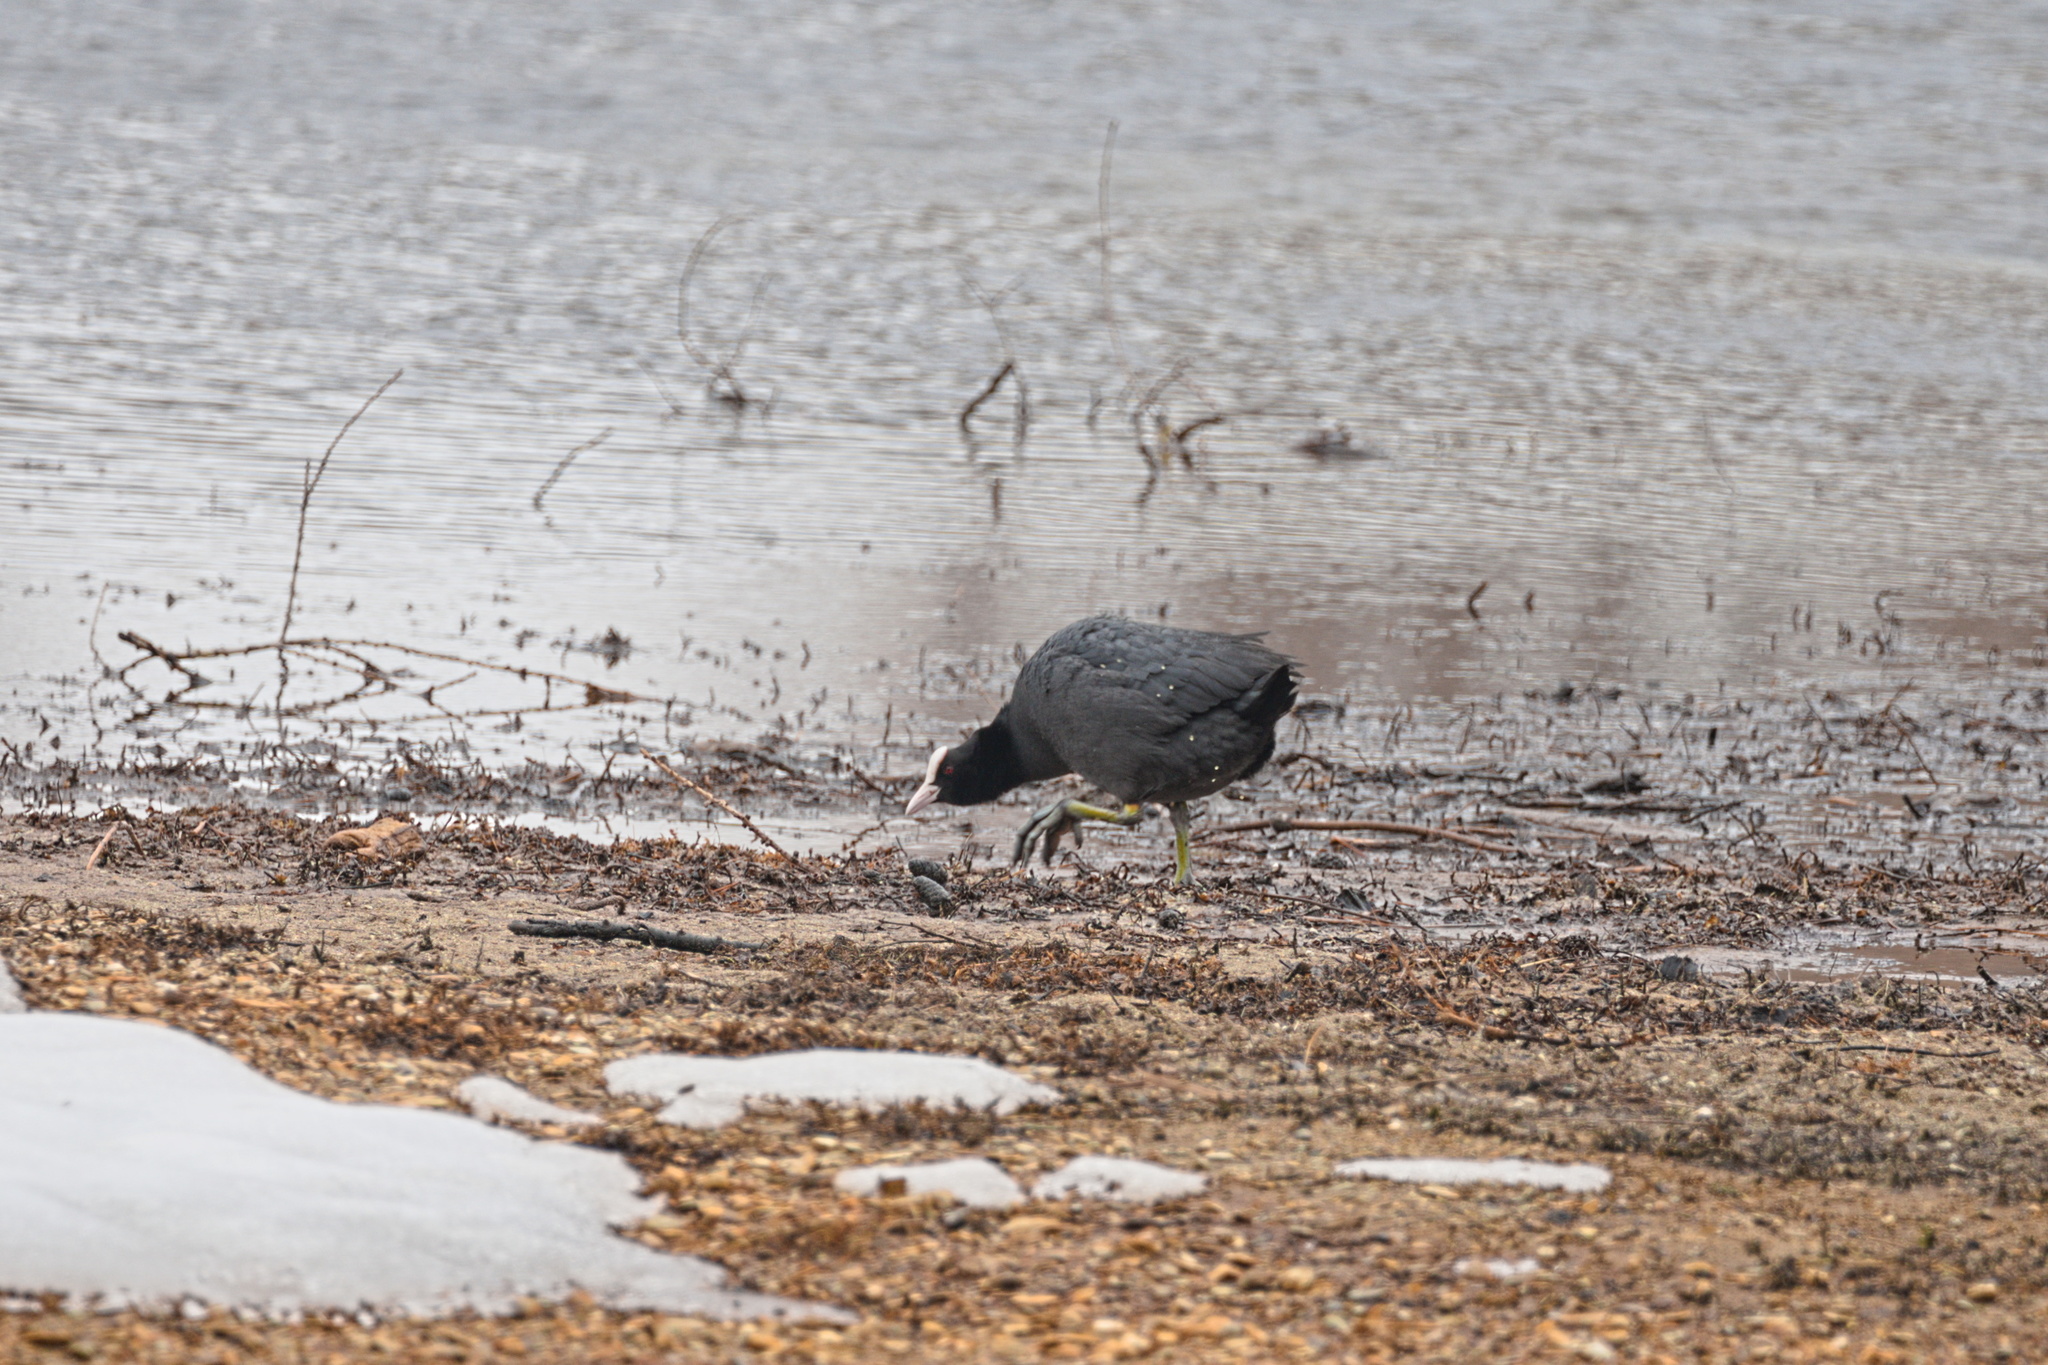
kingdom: Animalia
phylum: Chordata
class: Aves
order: Gruiformes
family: Rallidae
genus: Fulica
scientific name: Fulica atra
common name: Eurasian coot
